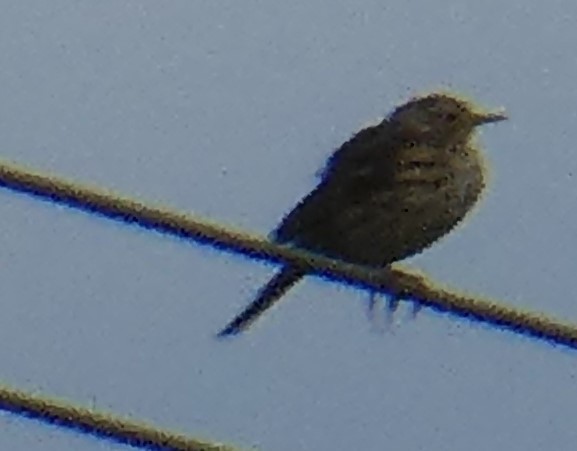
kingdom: Animalia
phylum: Chordata
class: Aves
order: Passeriformes
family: Motacillidae
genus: Anthus
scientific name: Anthus pratensis
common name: Meadow pipit
